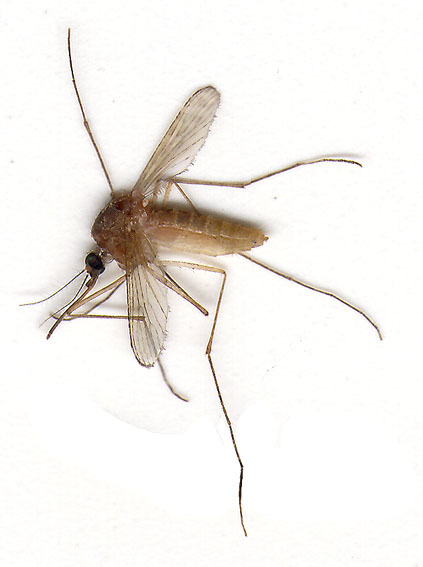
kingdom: Animalia
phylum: Arthropoda
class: Insecta
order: Diptera
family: Culicidae
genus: Culex
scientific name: Culex pipiens
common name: Mosquito
